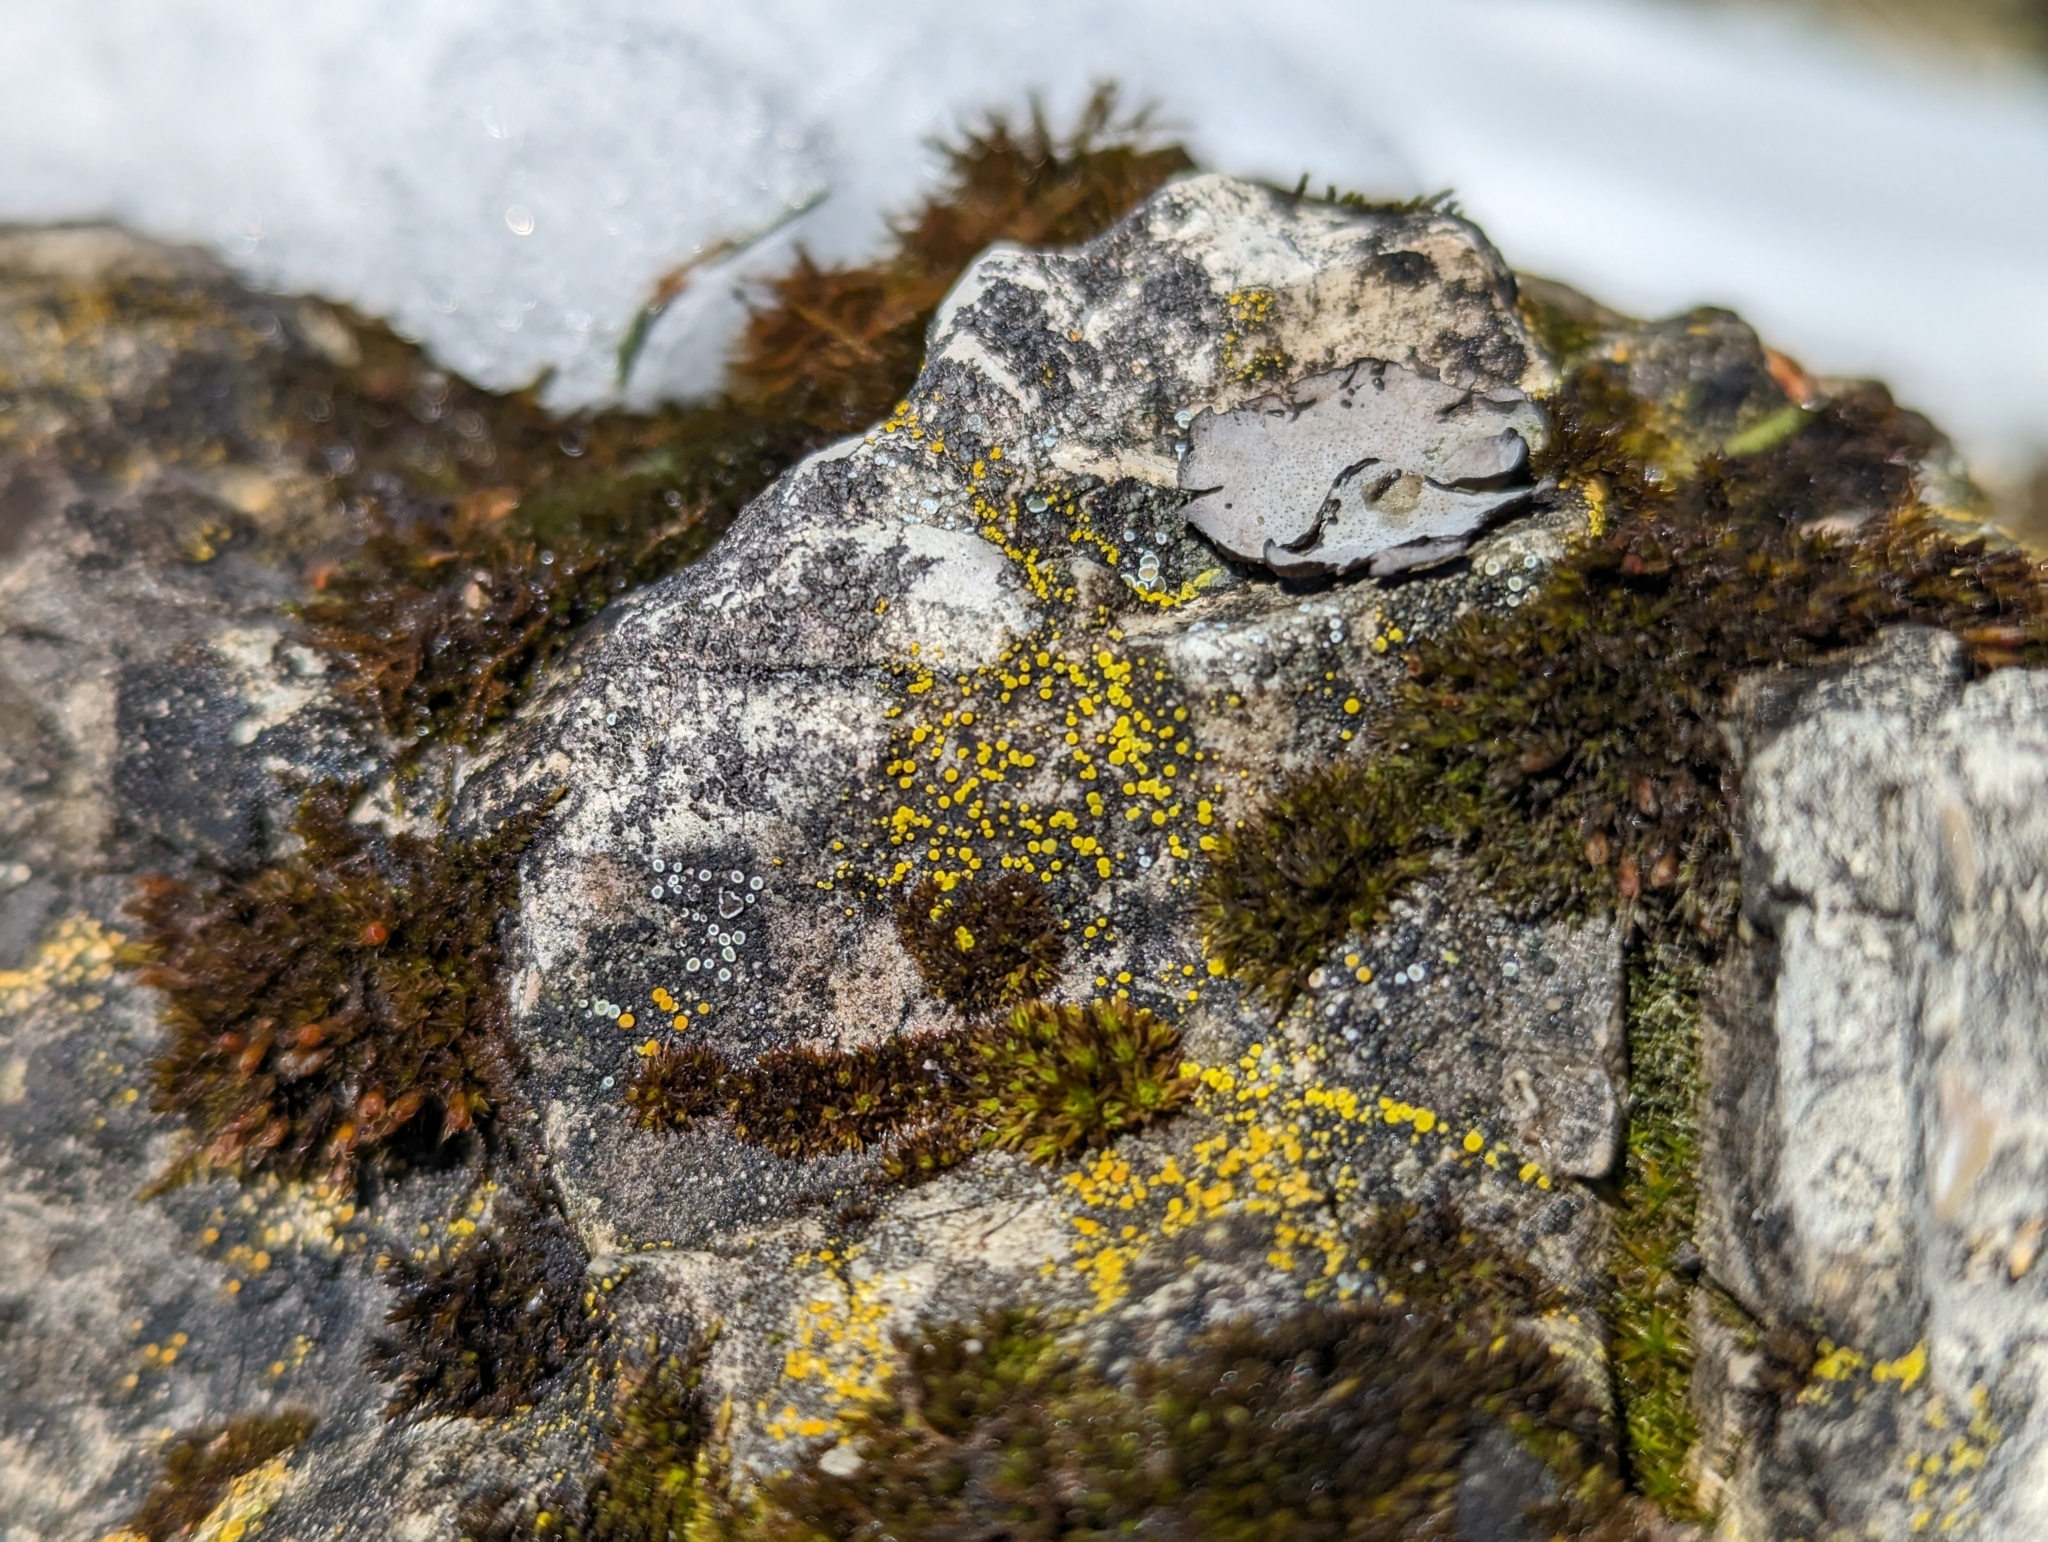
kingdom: Fungi
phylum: Ascomycota
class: Candelariomycetes
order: Candelariales
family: Candelariaceae
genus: Candelariella
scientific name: Candelariella aurella
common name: Hidden goldspeck lichen
